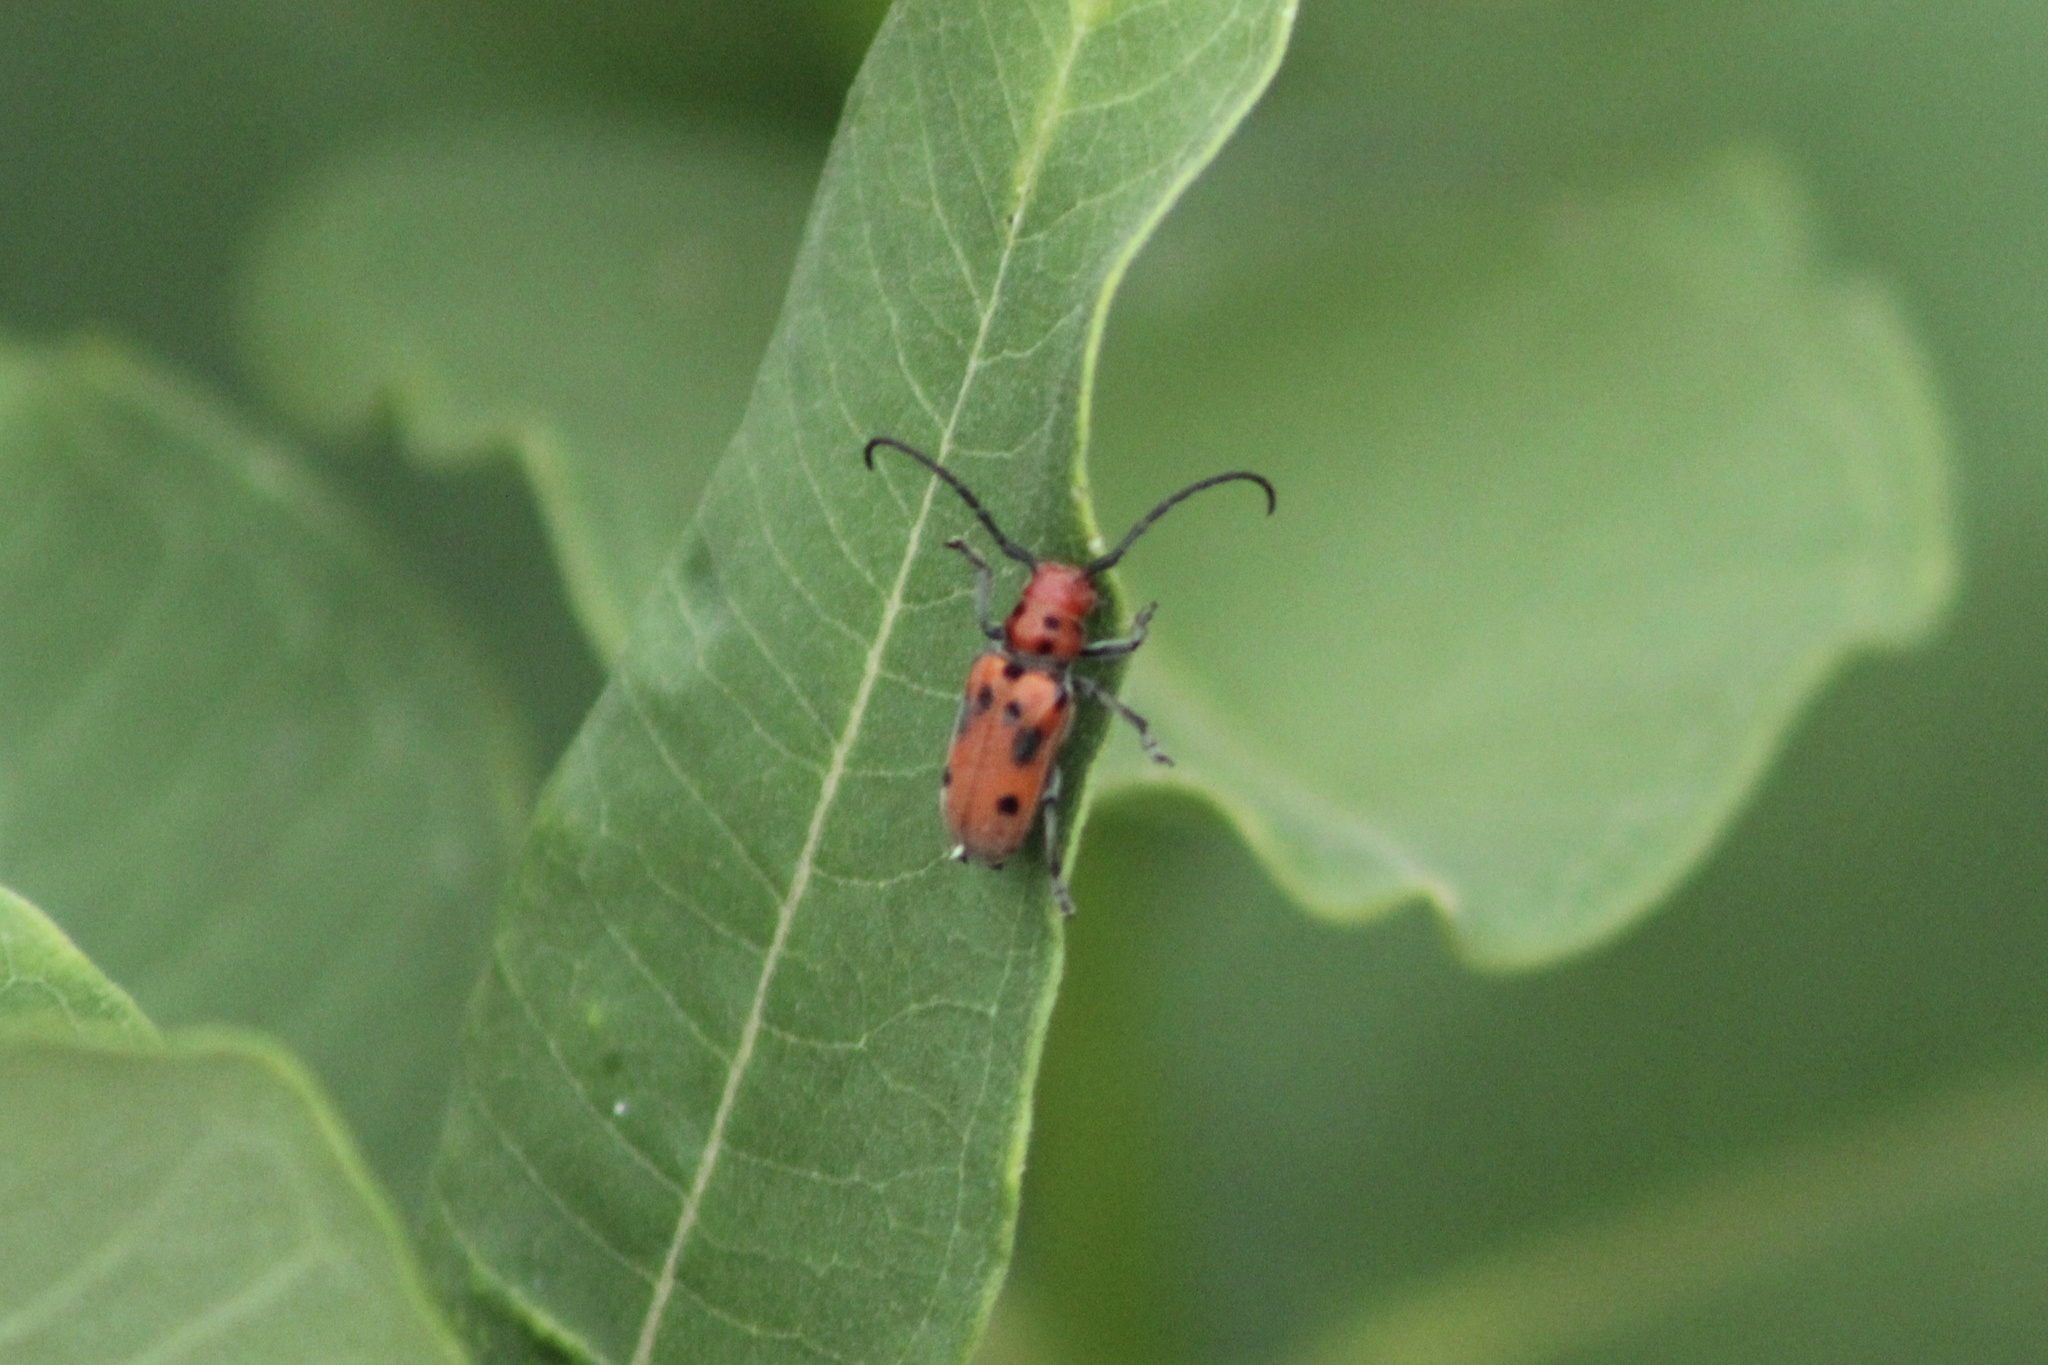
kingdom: Animalia
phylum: Arthropoda
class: Insecta
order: Coleoptera
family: Cerambycidae
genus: Tetraopes
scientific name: Tetraopes tetrophthalmus
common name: Red milkweed beetle
